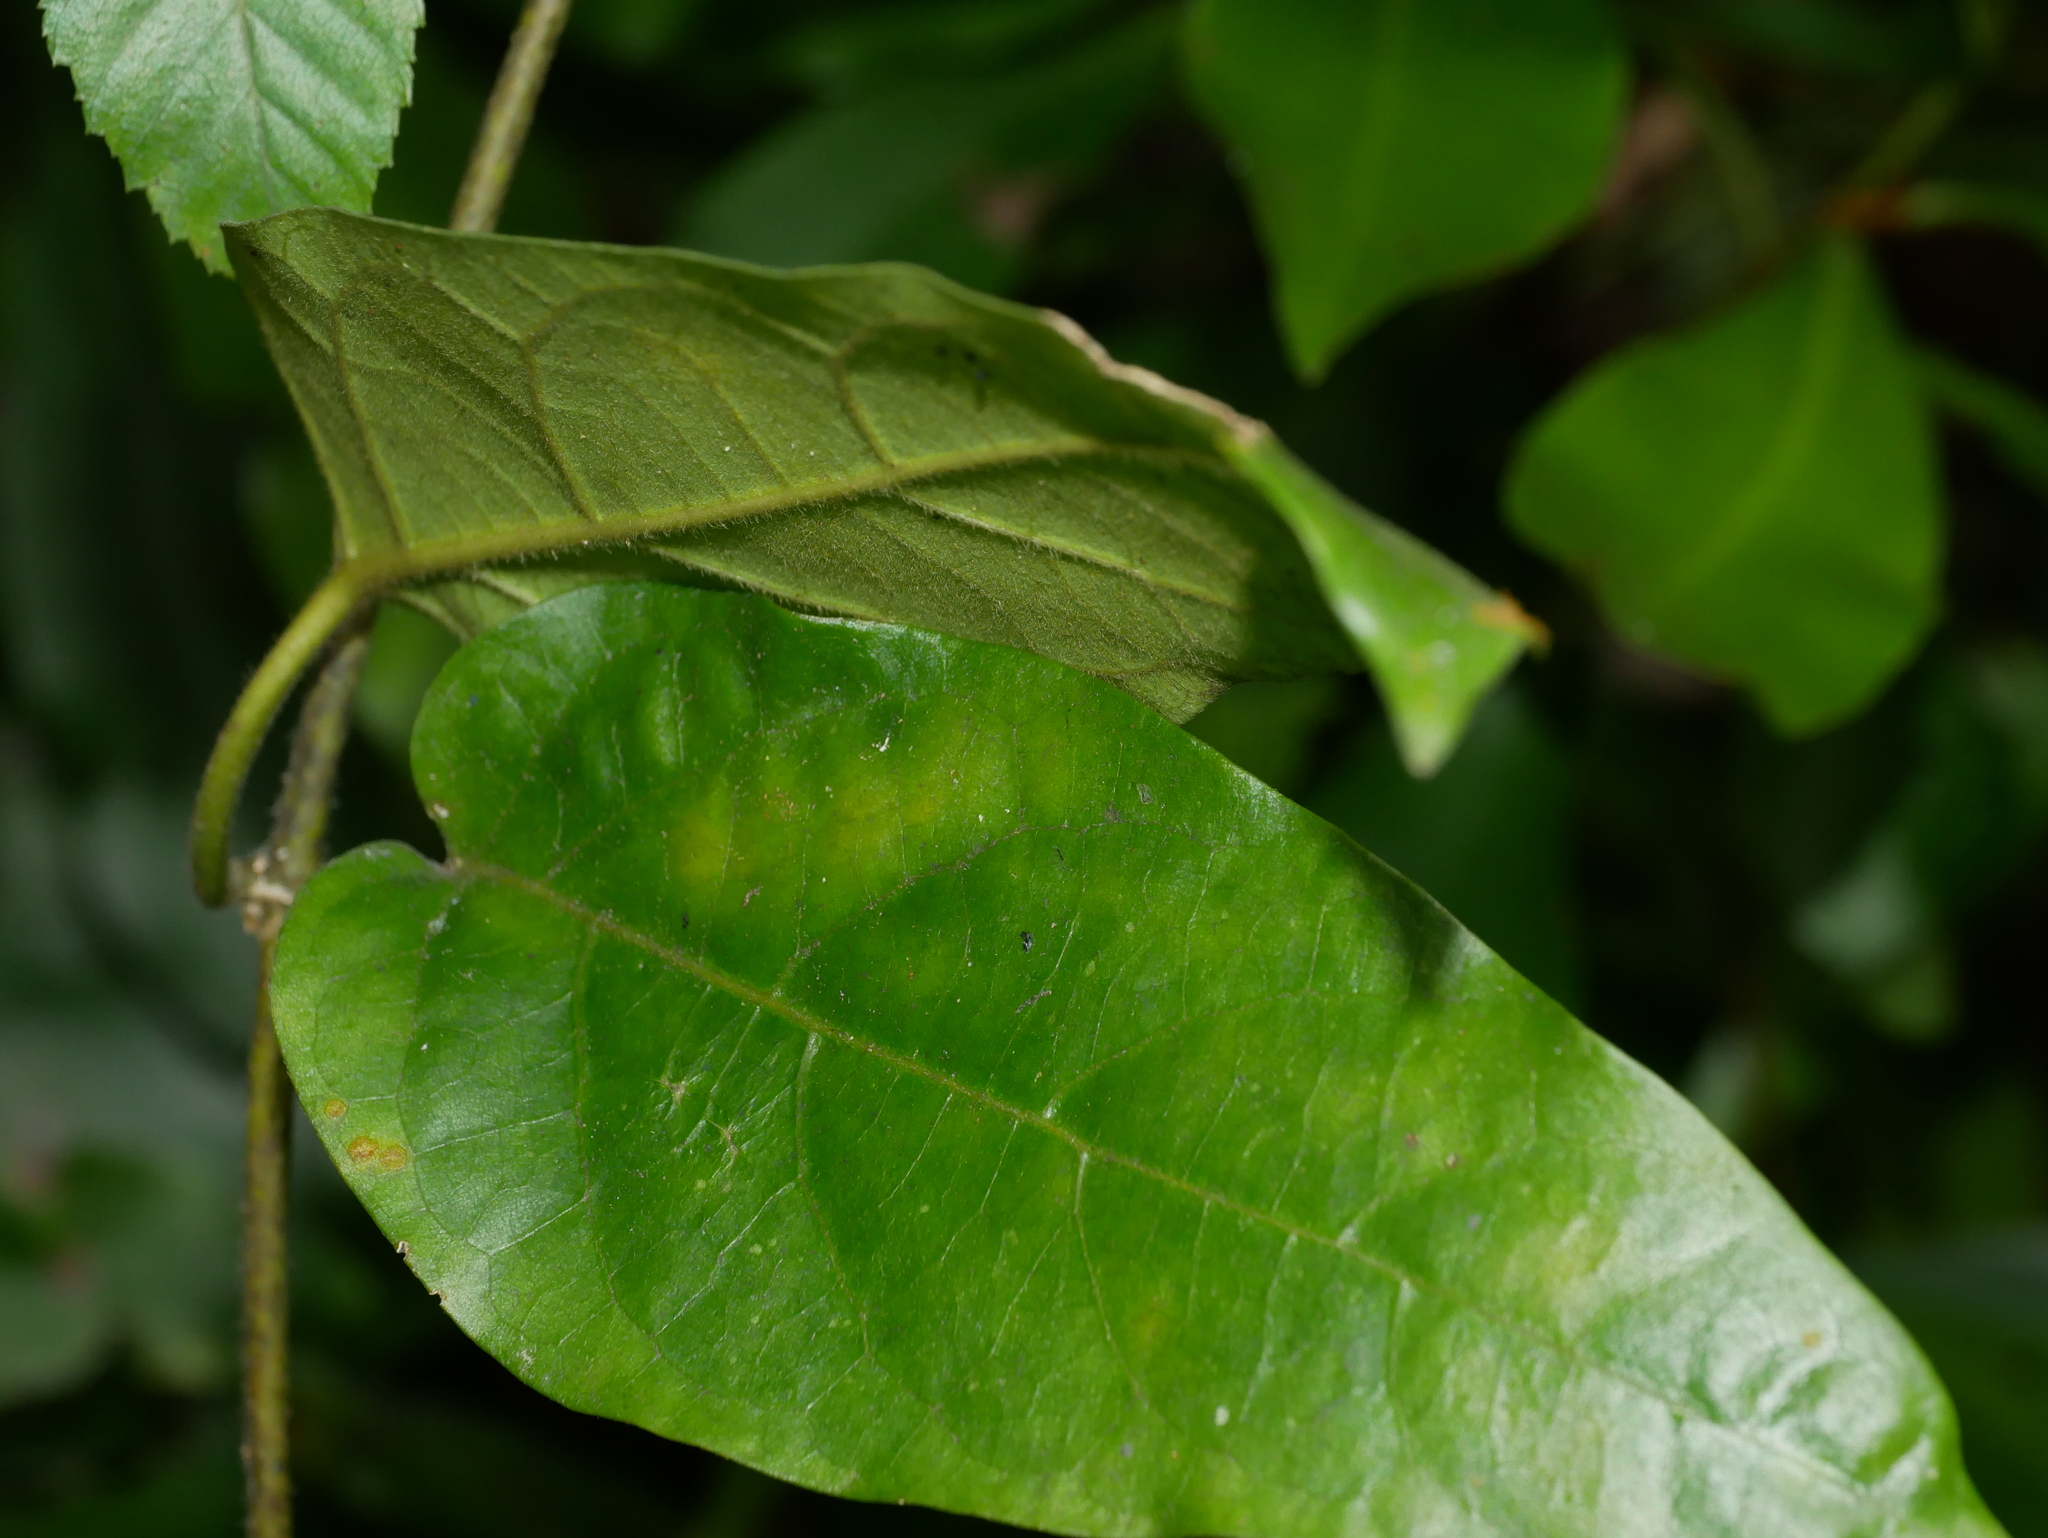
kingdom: Plantae
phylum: Tracheophyta
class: Magnoliopsida
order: Gentianales
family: Apocynaceae
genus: Marsdenia
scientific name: Marsdenia tinctoria
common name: Climbing-indigo
